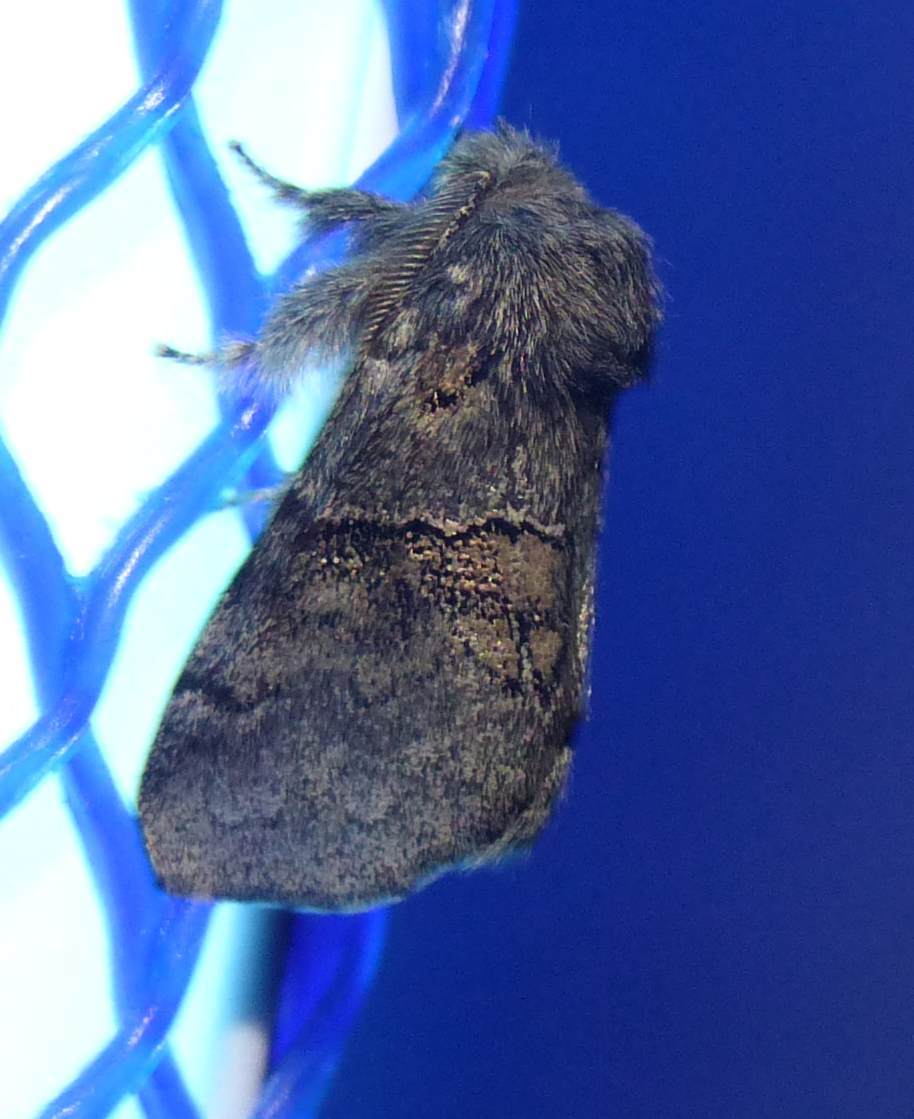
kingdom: Animalia
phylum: Arthropoda
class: Insecta
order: Lepidoptera
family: Notodontidae
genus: Gluphisia
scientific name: Gluphisia septentrionis
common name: Common gluphisia
